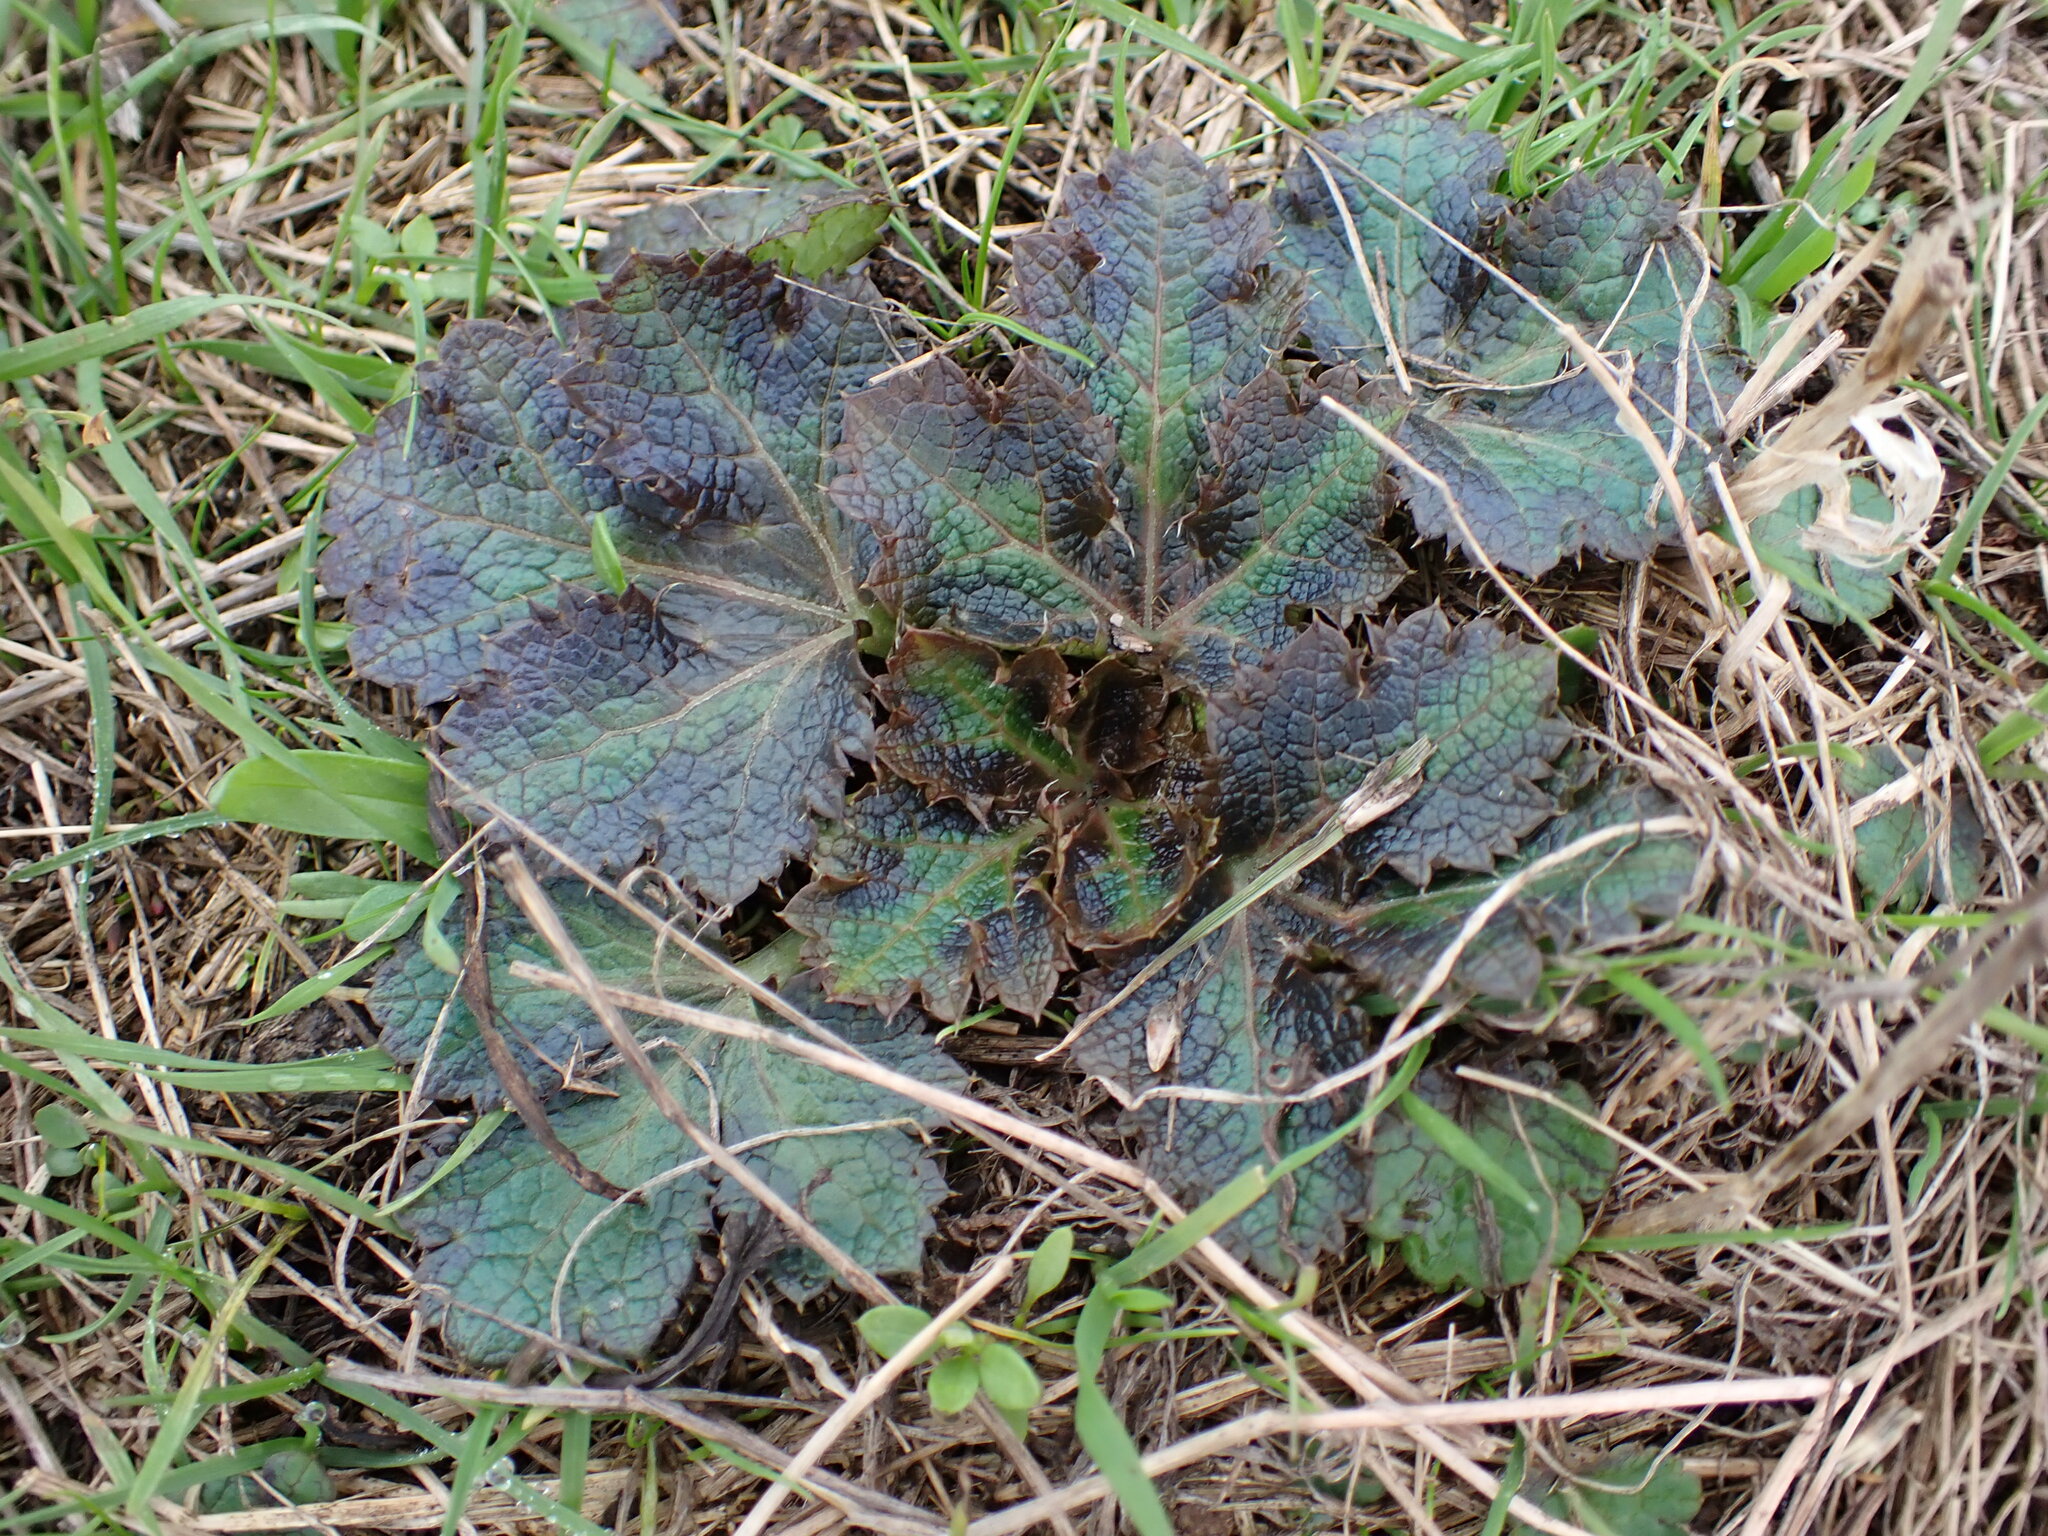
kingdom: Plantae
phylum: Tracheophyta
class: Magnoliopsida
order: Apiales
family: Apiaceae
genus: Sanicula
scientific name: Sanicula crassicaulis
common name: Western snakeroot
